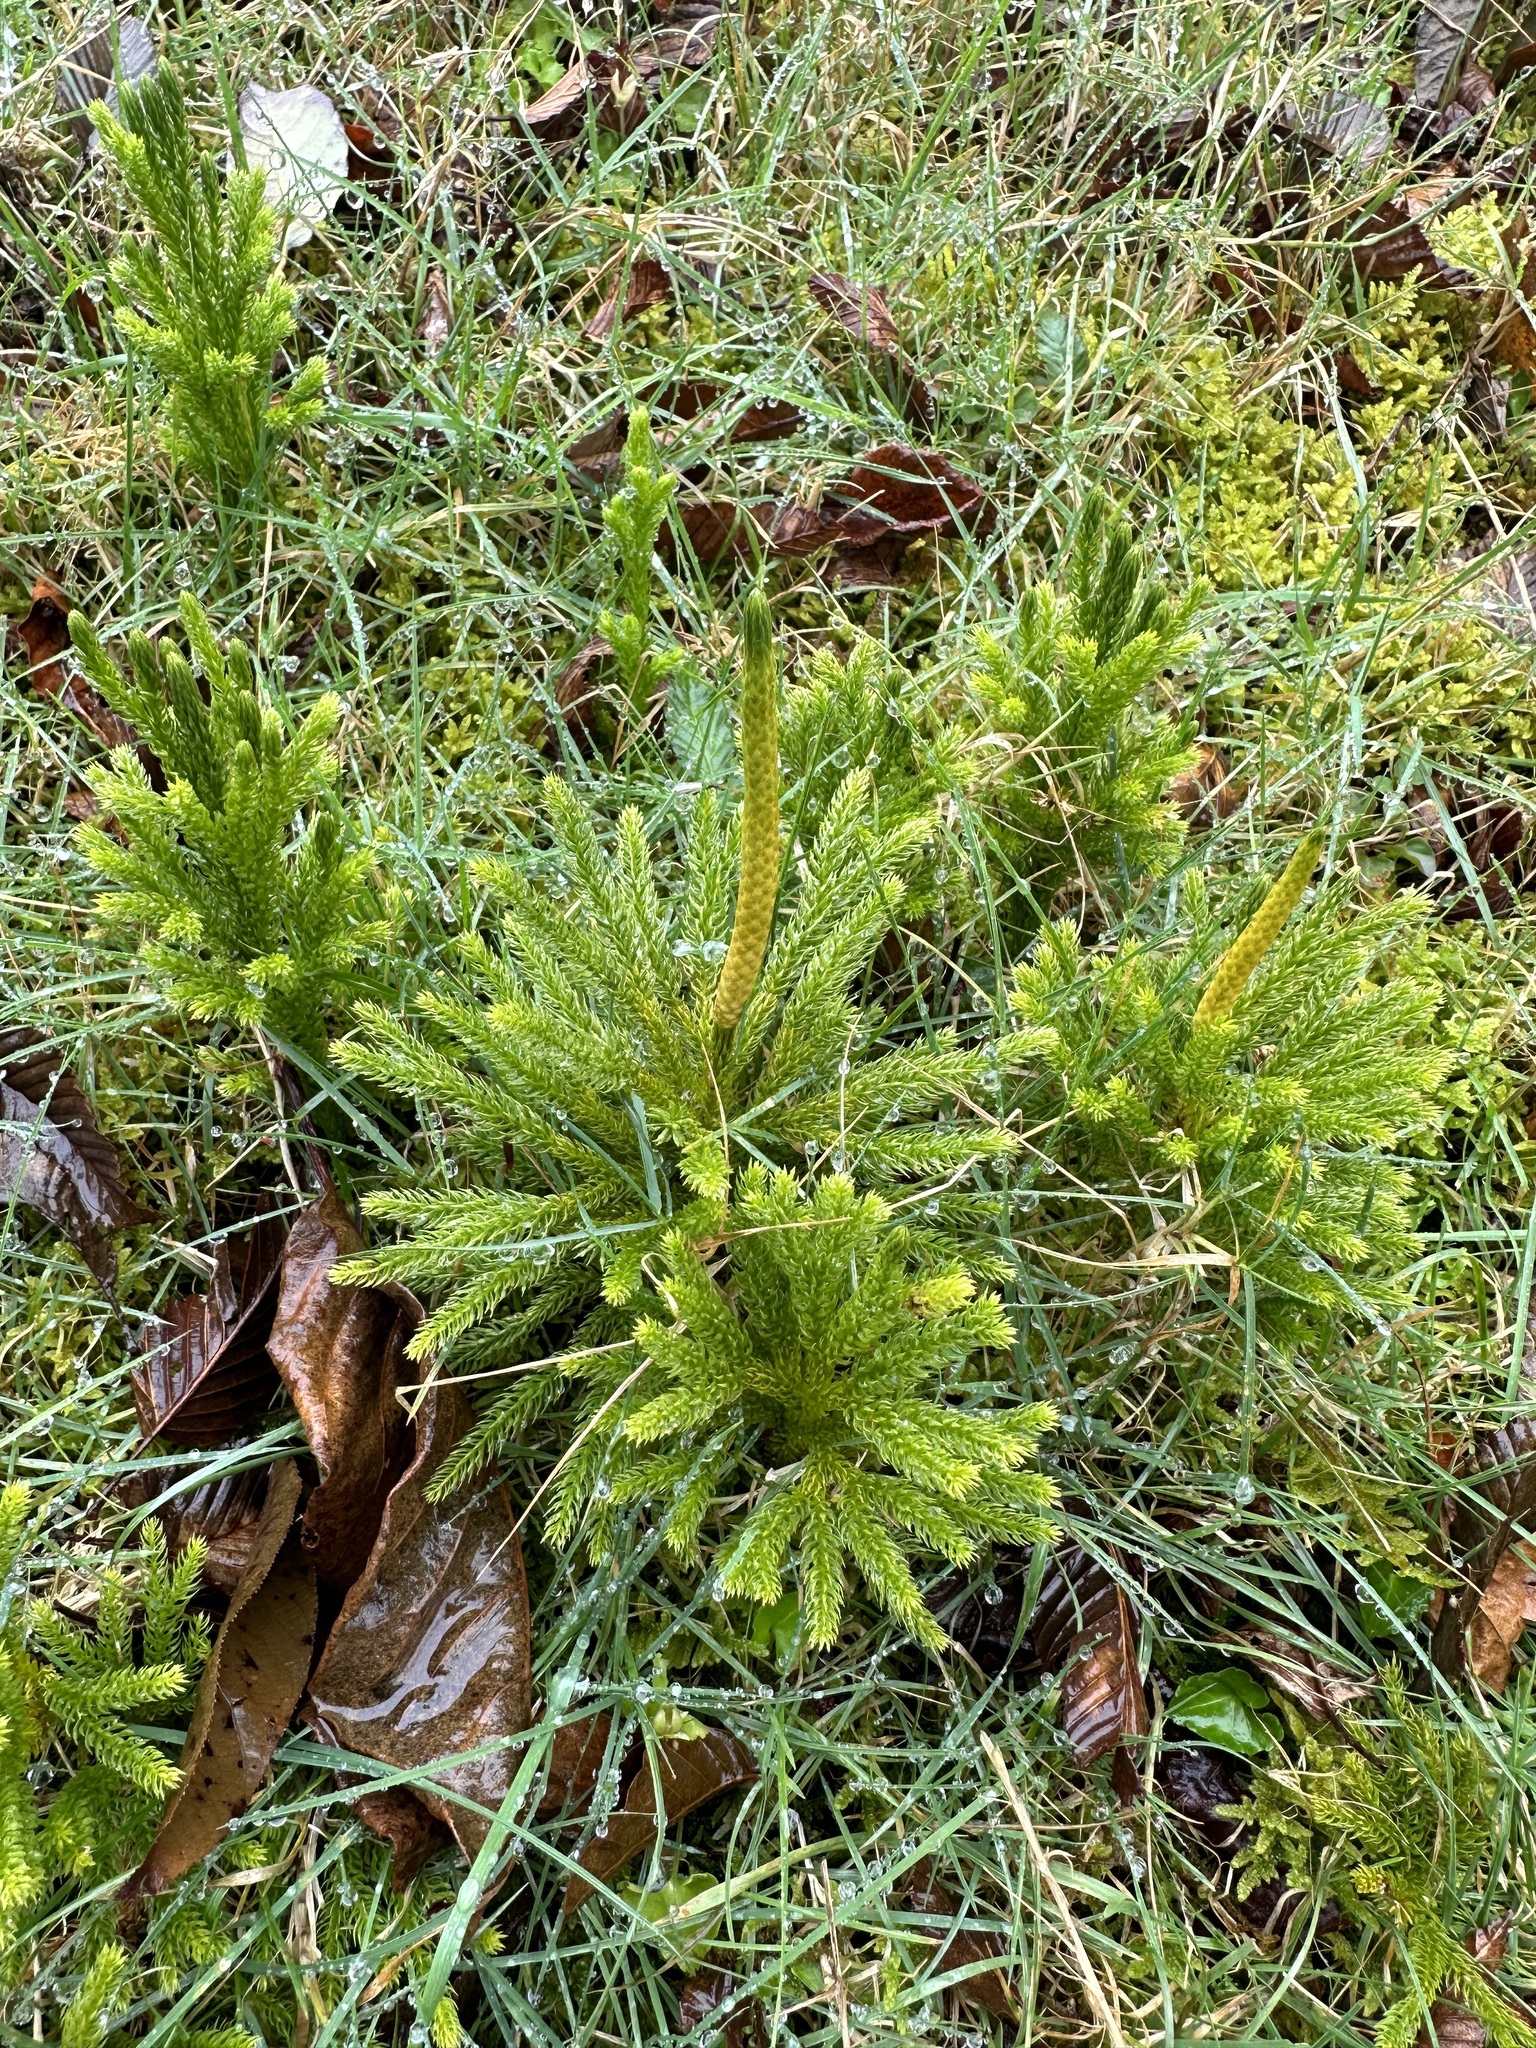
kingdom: Plantae
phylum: Tracheophyta
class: Lycopodiopsida
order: Lycopodiales
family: Lycopodiaceae
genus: Dendrolycopodium
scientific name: Dendrolycopodium dendroideum
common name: Northern tree-clubmoss
